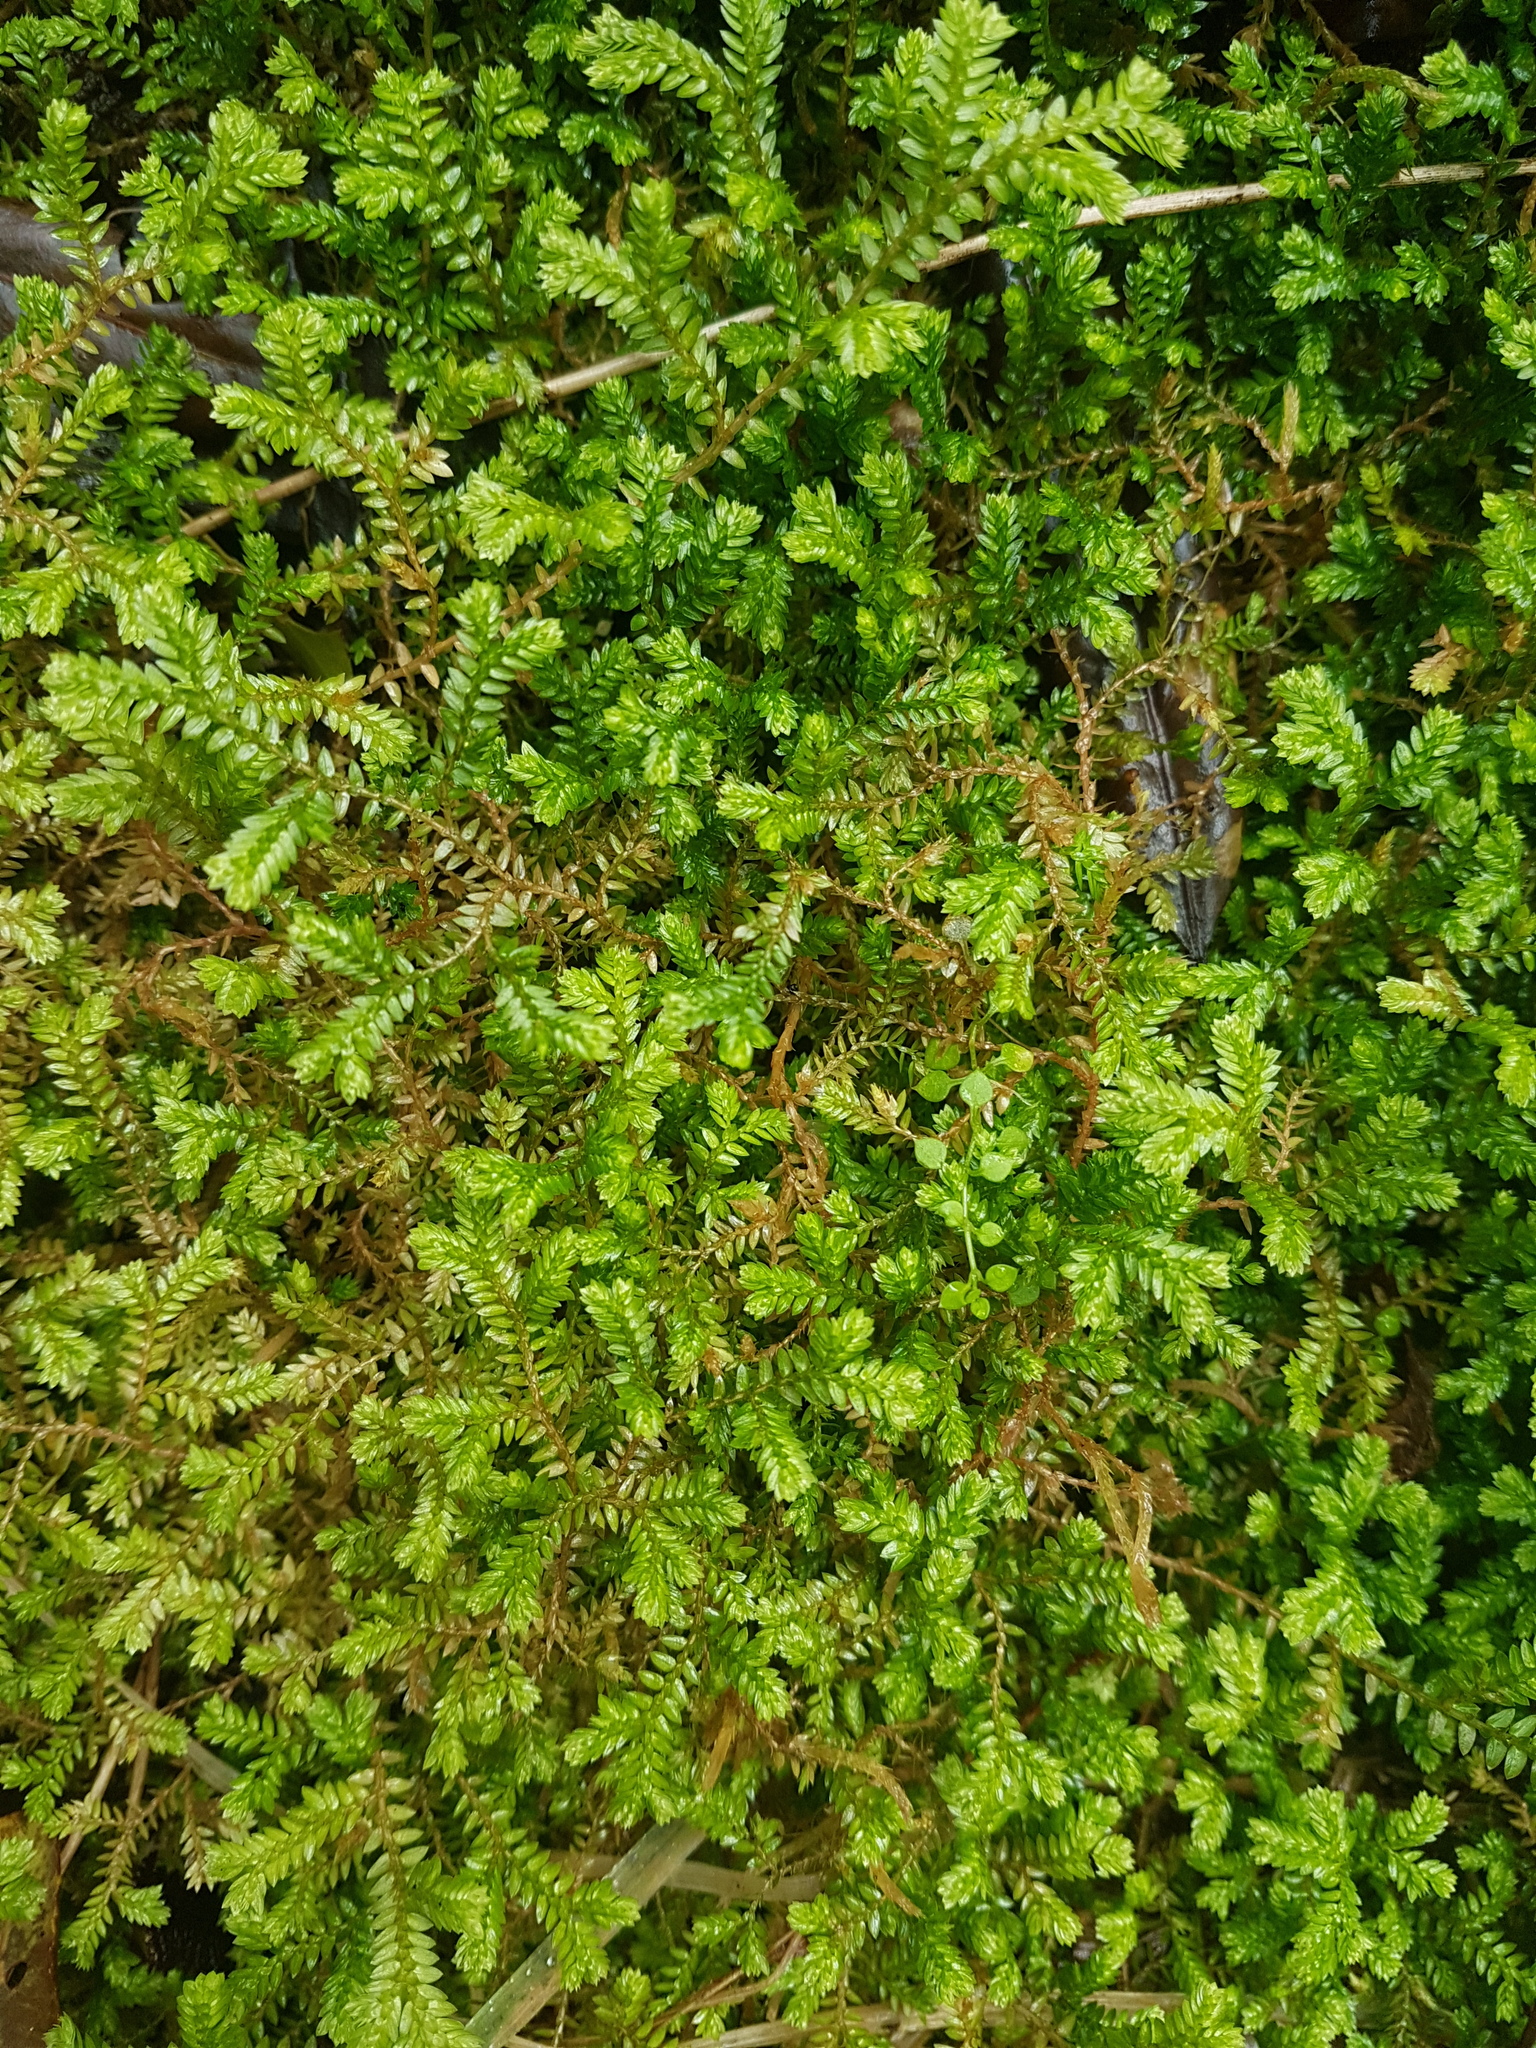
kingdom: Plantae
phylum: Tracheophyta
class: Lycopodiopsida
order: Selaginellales
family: Selaginellaceae
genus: Selaginella
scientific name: Selaginella kraussiana
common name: Krauss' spikemoss
